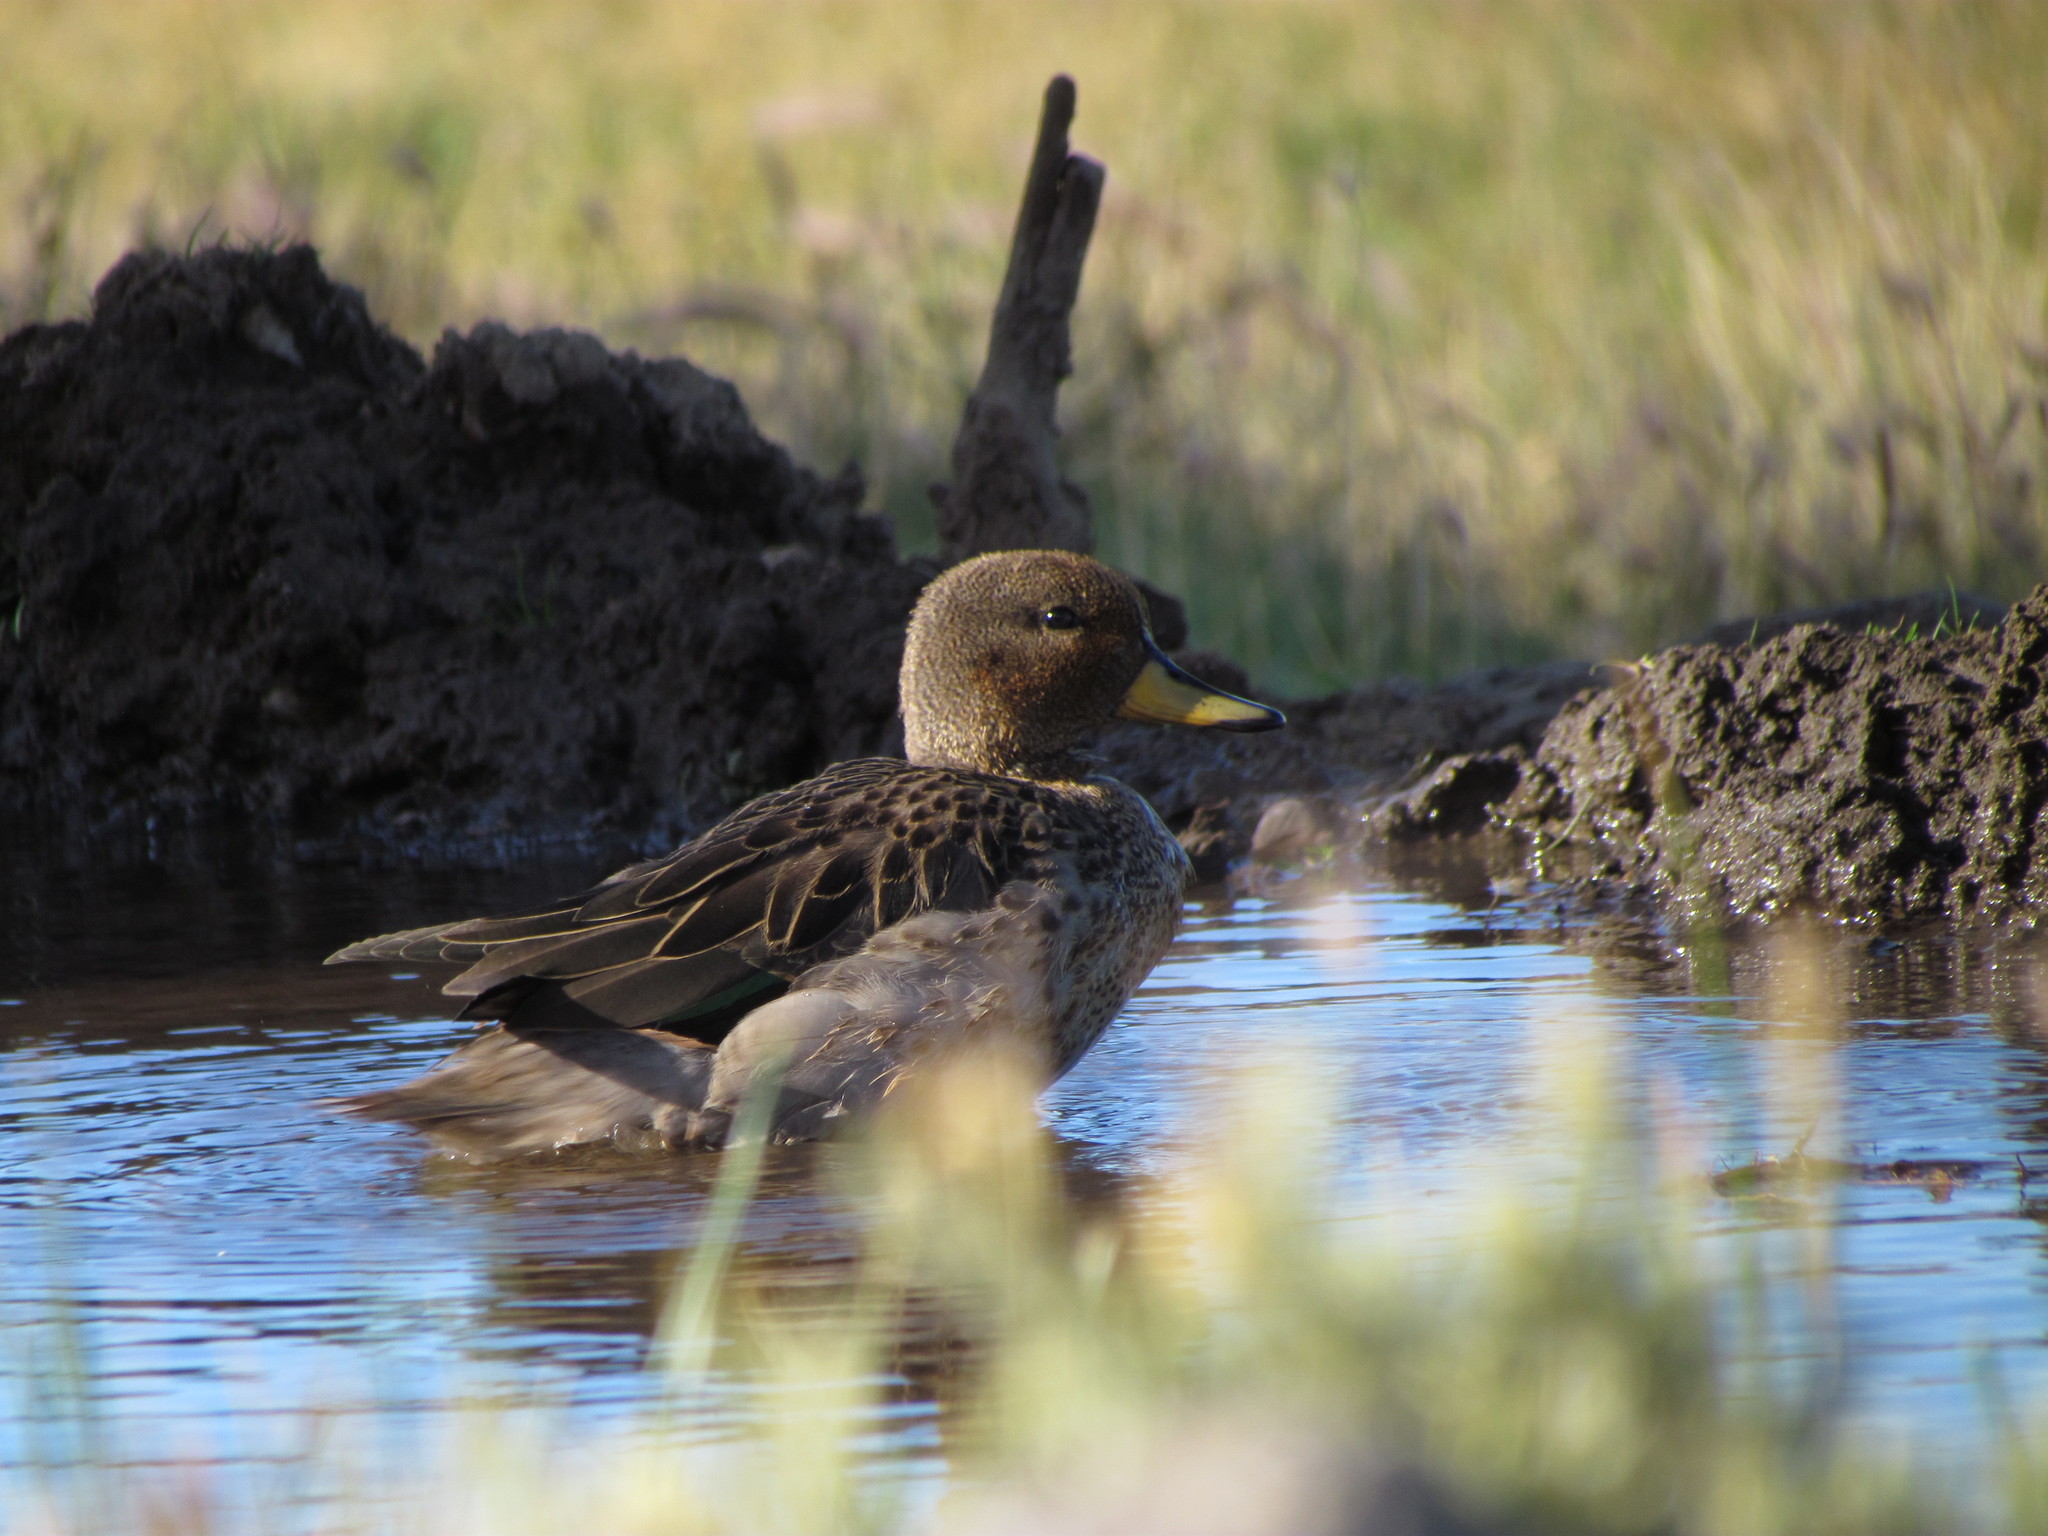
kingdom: Animalia
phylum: Chordata
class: Aves
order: Anseriformes
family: Anatidae
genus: Anas
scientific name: Anas flavirostris
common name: Yellow-billed teal
